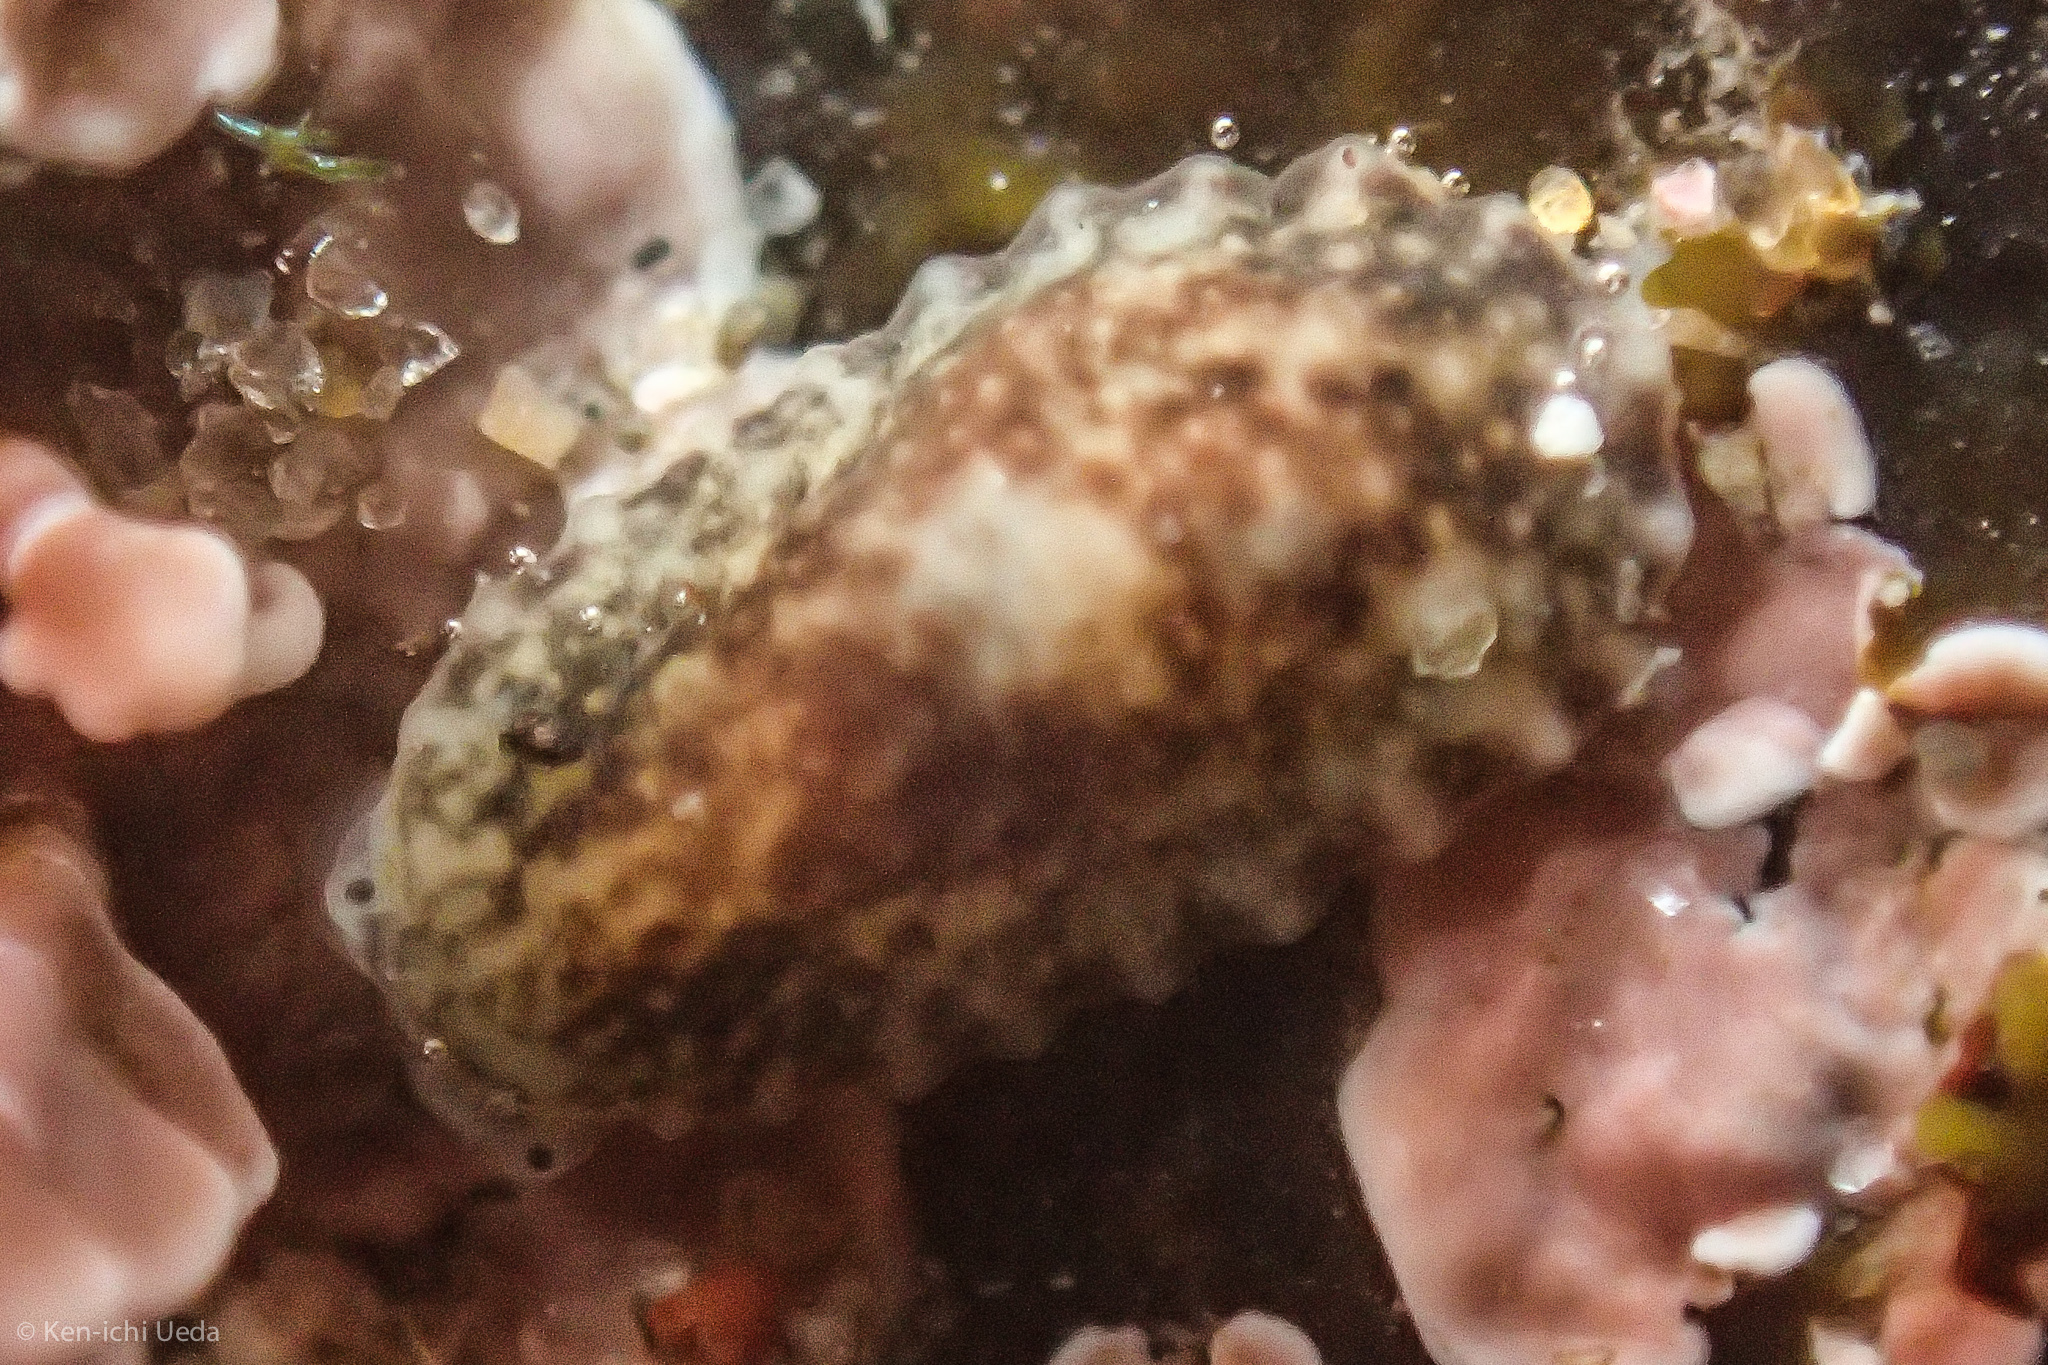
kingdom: Animalia
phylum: Mollusca
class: Gastropoda
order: Systellommatophora
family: Onchidiidae
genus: Onchidella
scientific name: Onchidella carpenteri
